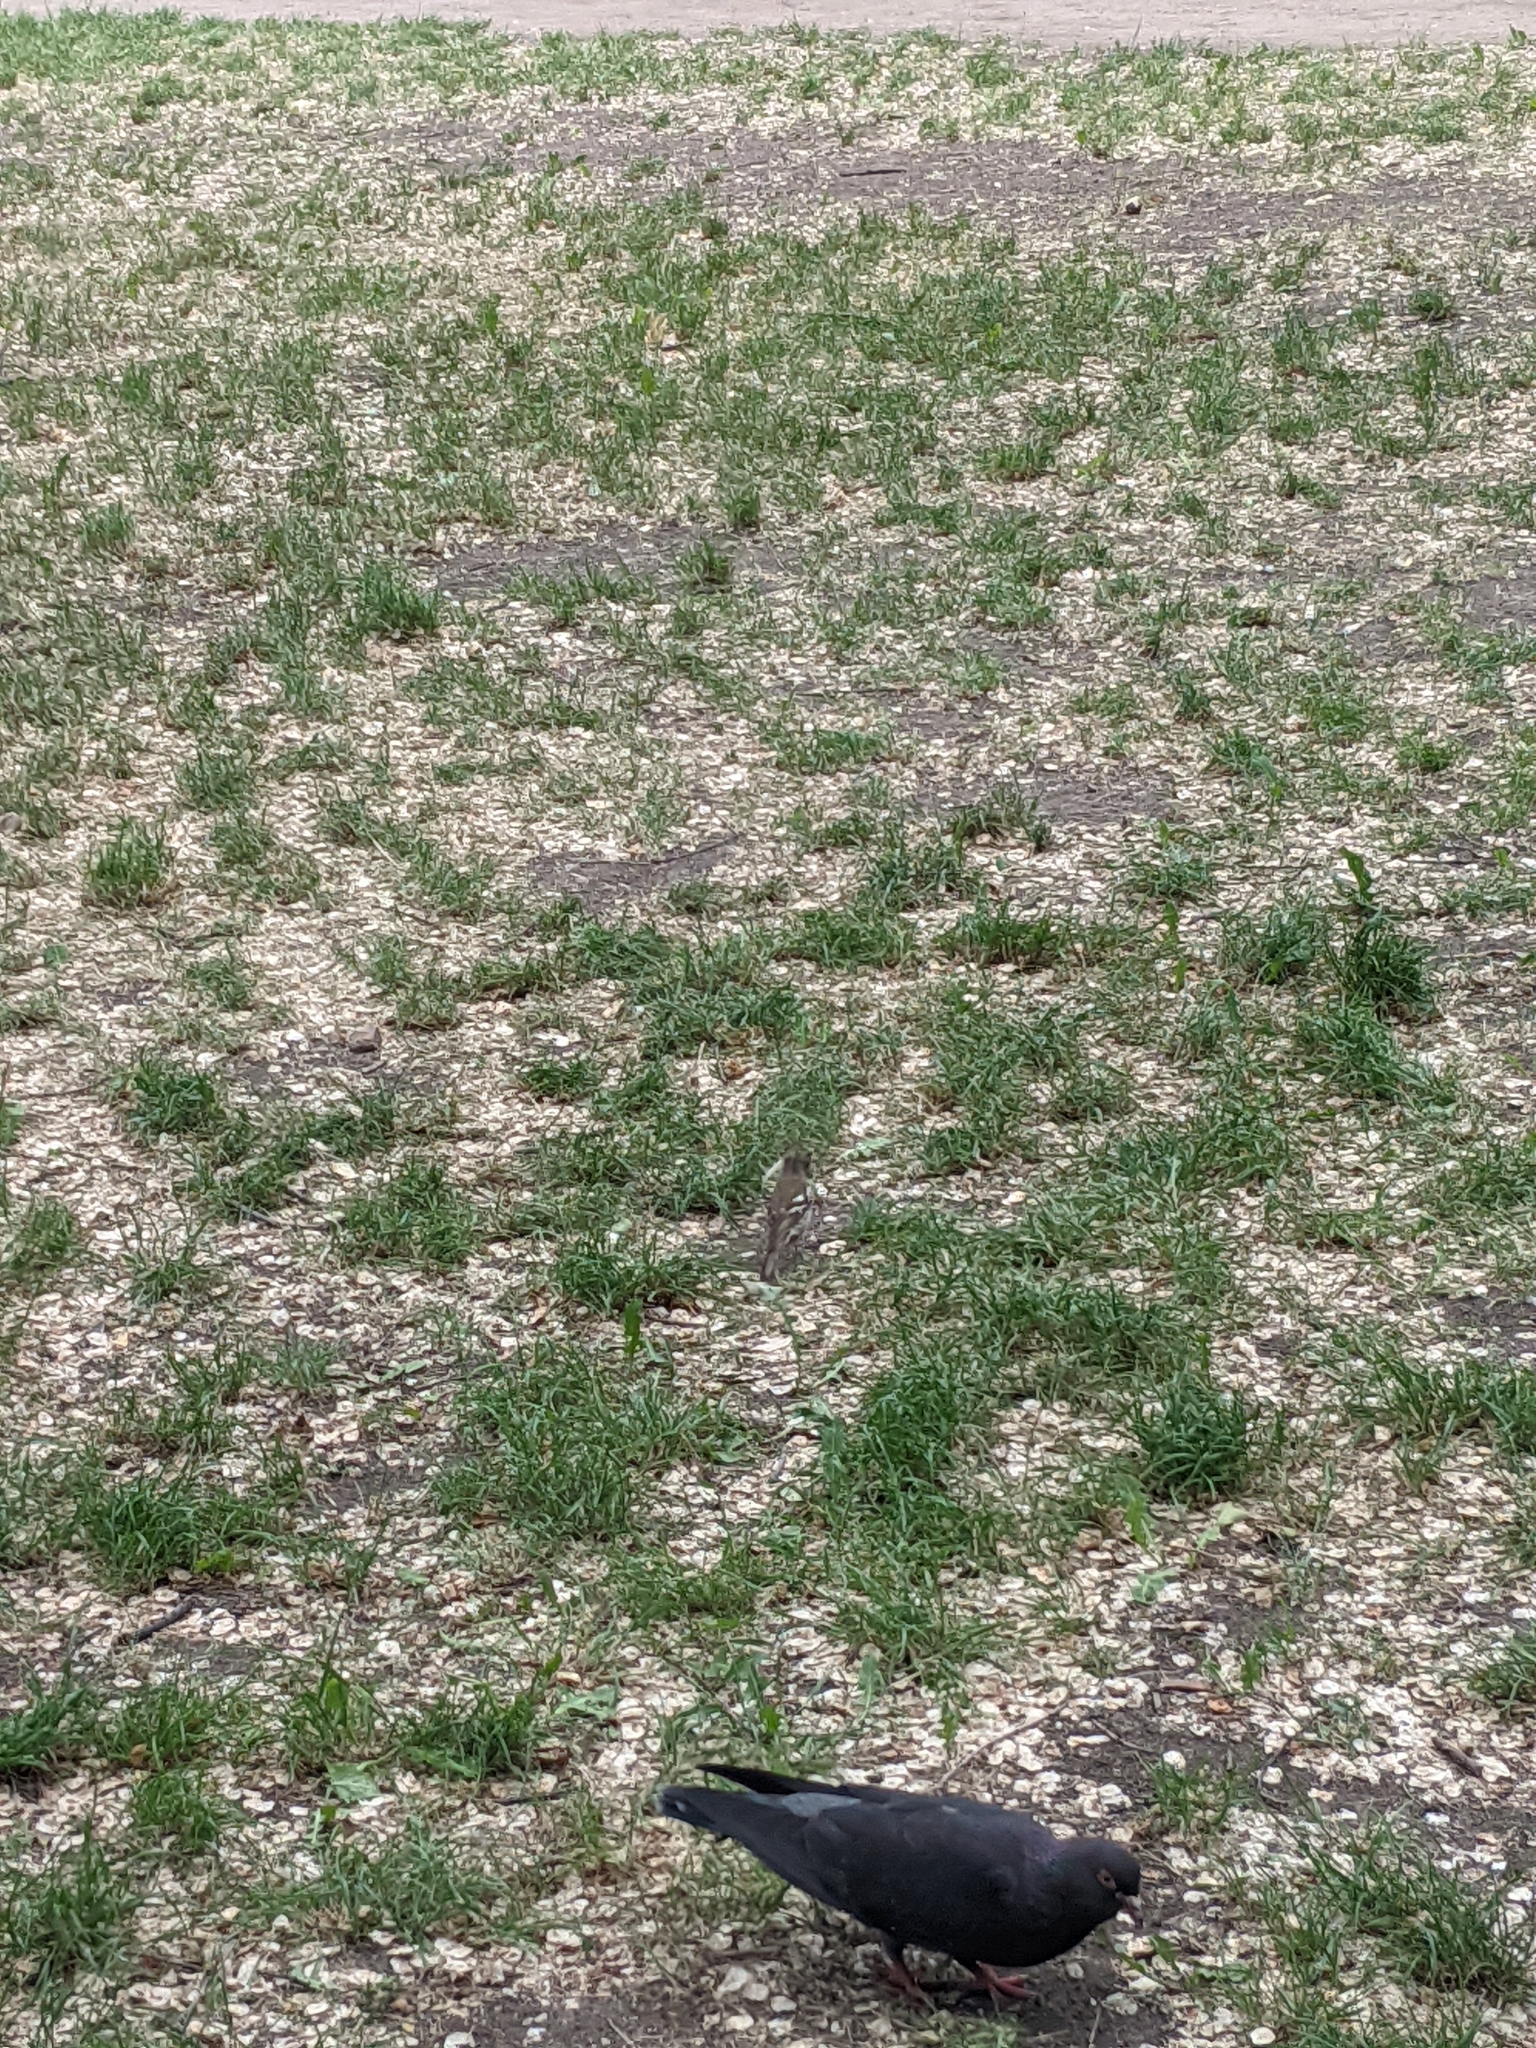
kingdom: Animalia
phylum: Chordata
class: Aves
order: Passeriformes
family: Fringillidae
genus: Fringilla
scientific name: Fringilla coelebs
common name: Common chaffinch
